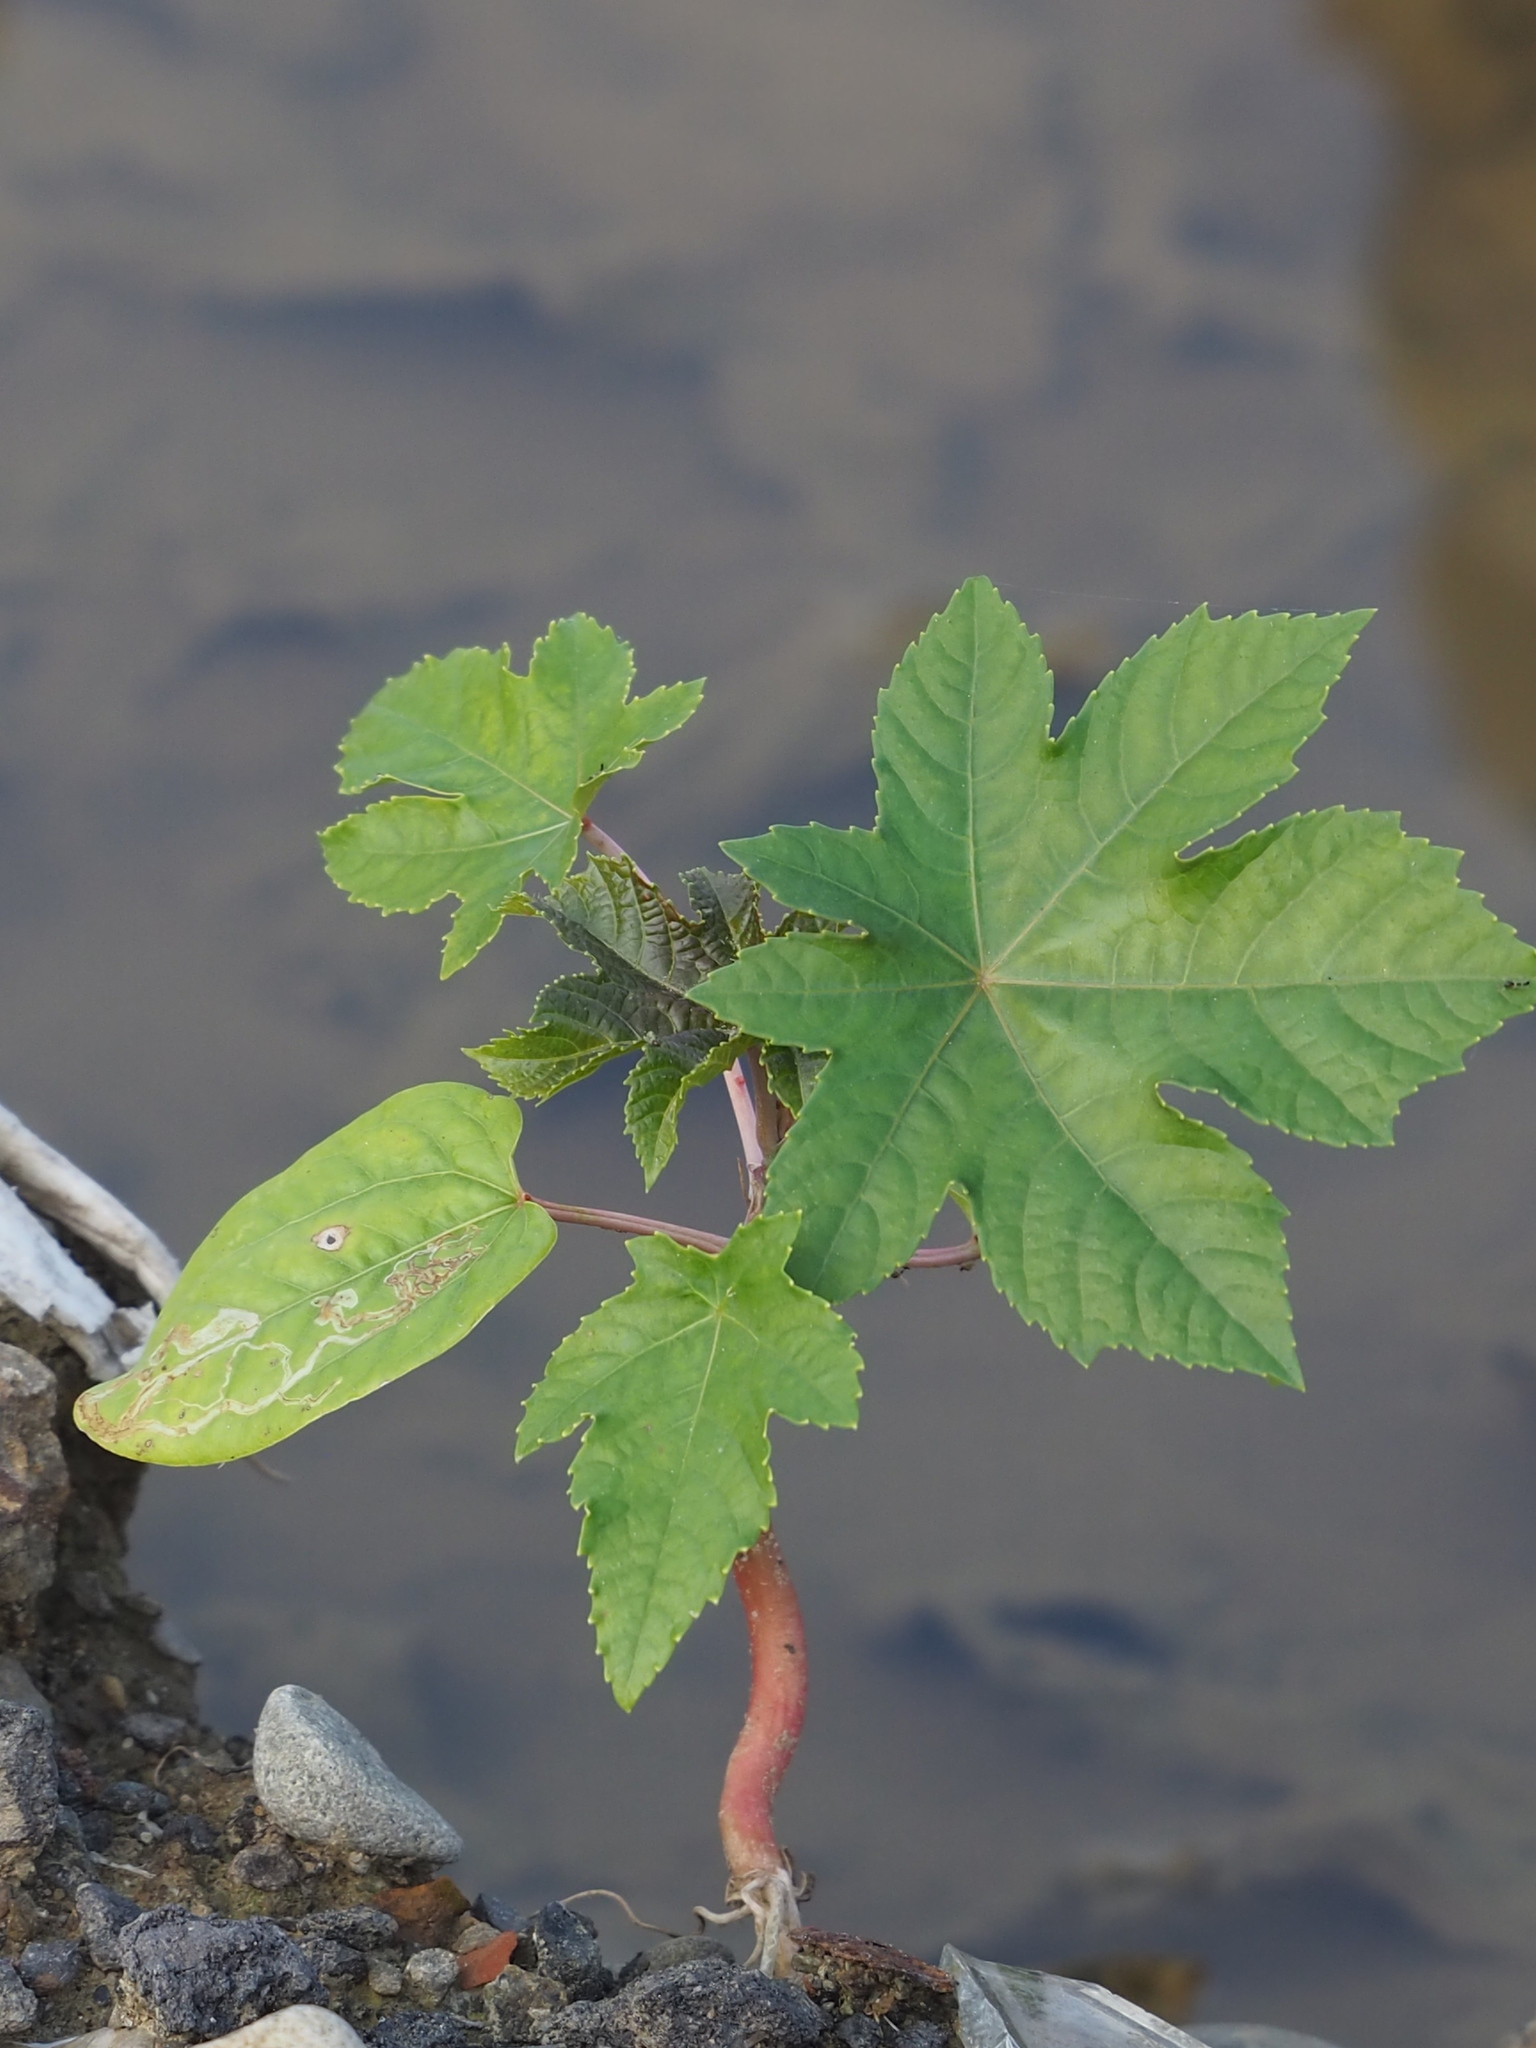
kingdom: Plantae
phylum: Tracheophyta
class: Magnoliopsida
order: Malpighiales
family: Euphorbiaceae
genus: Ricinus
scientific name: Ricinus communis
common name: Castor-oil-plant
